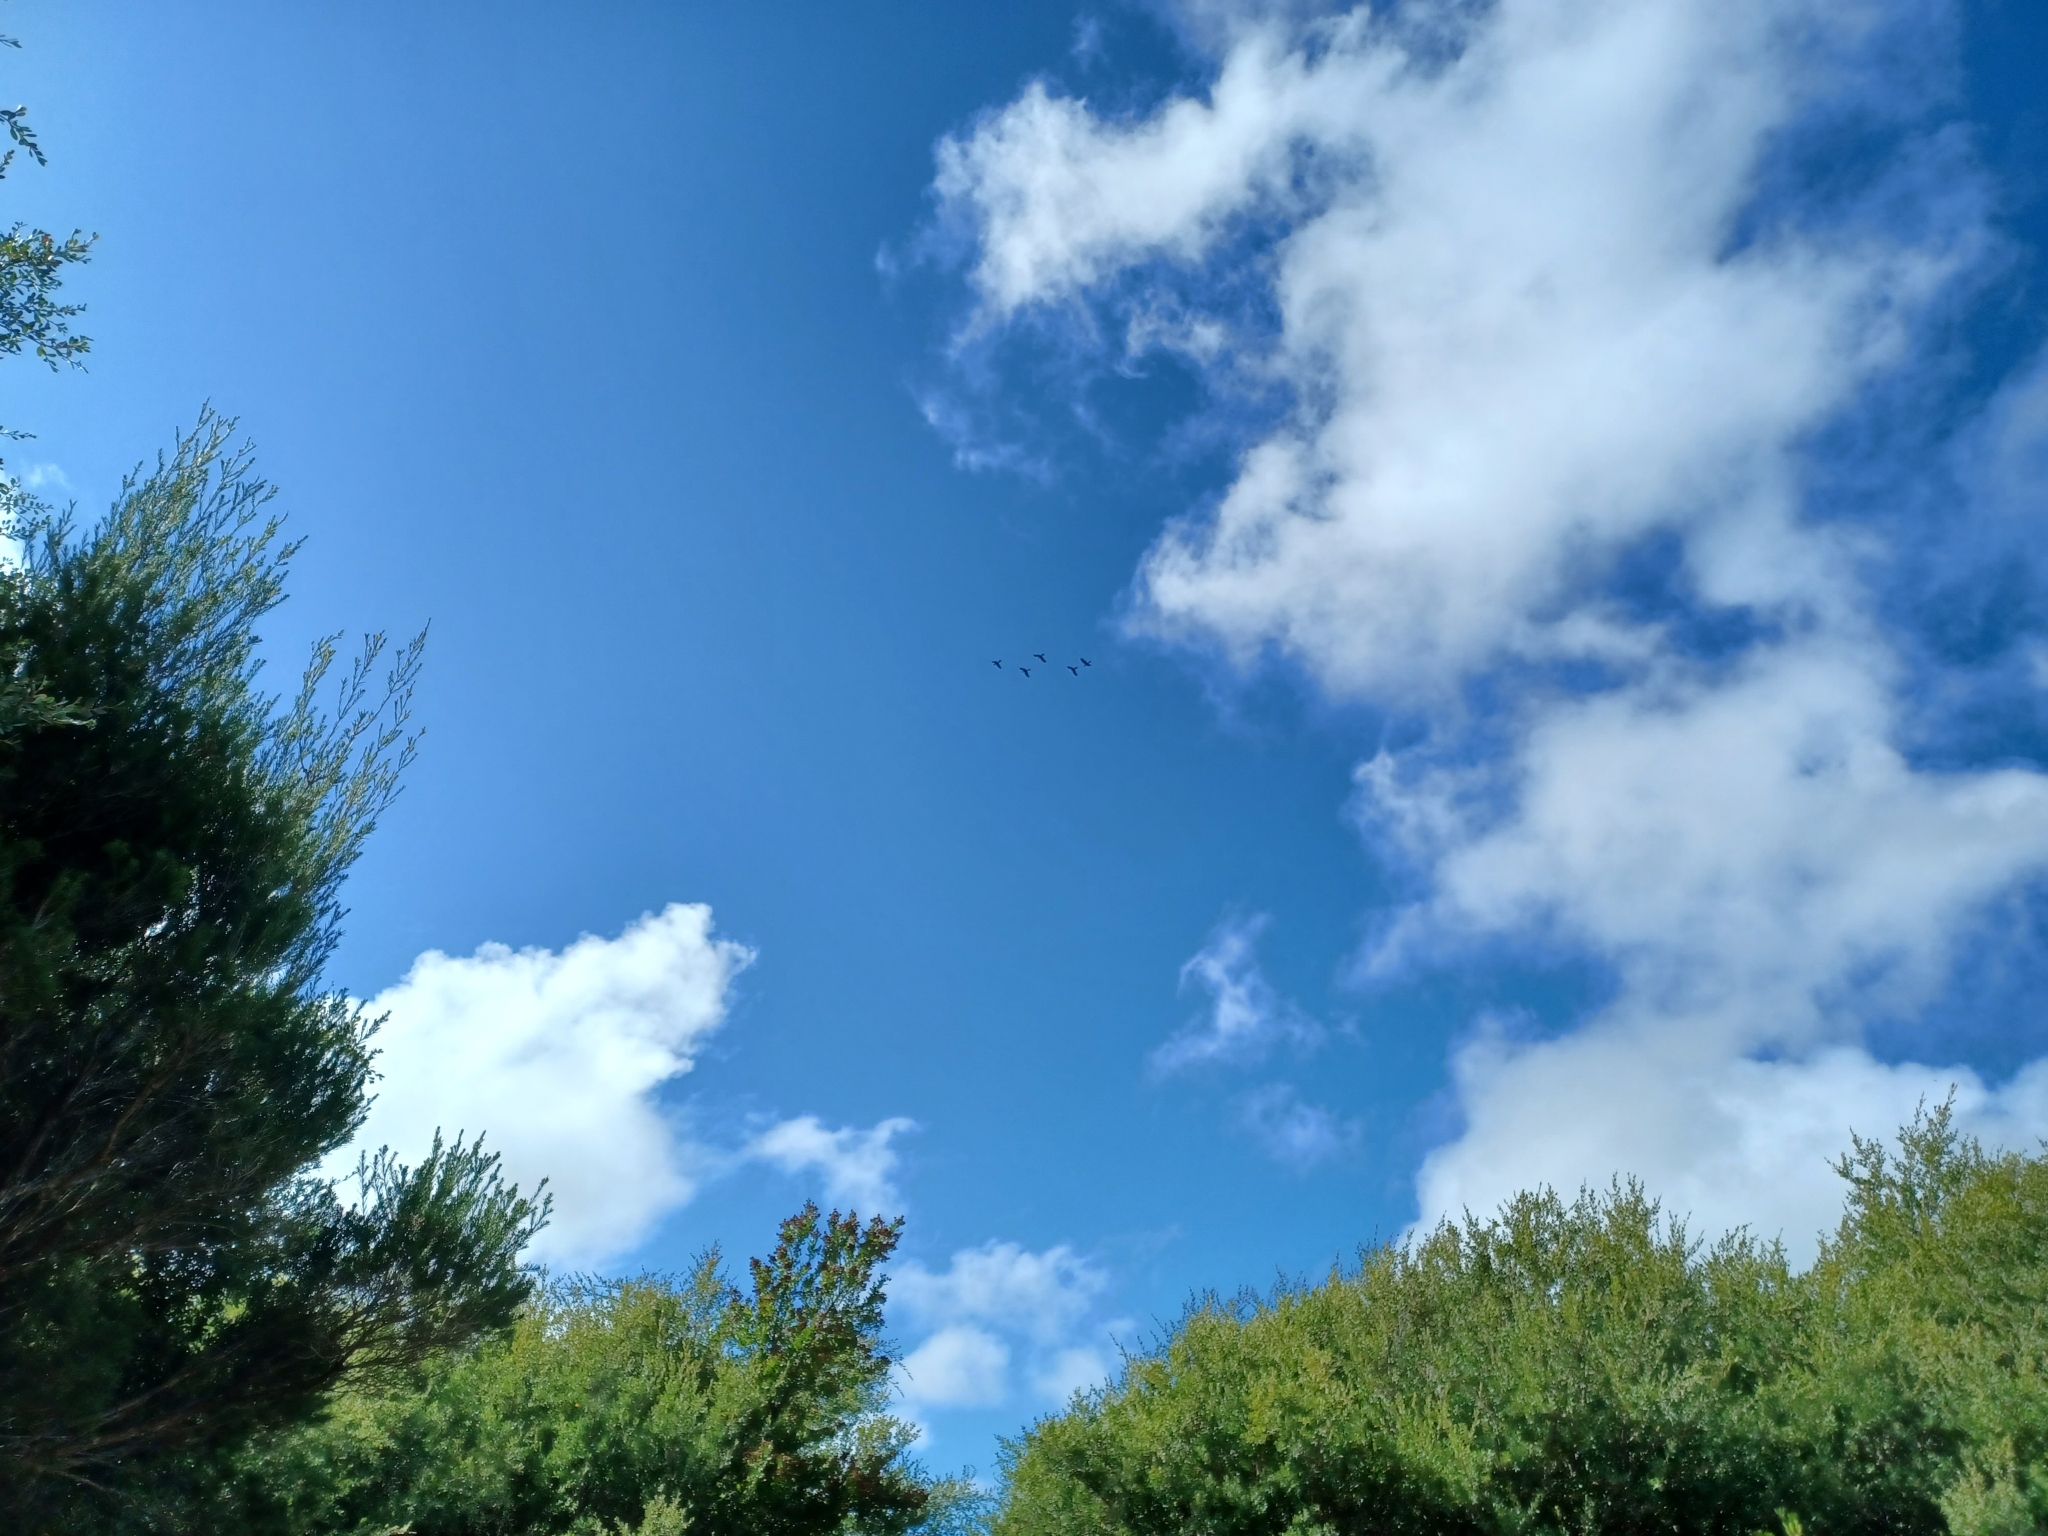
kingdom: Animalia
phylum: Chordata
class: Aves
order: Psittaciformes
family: Cacatuidae
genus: Zanda
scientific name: Zanda funerea
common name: Yellow-tailed black-cockatoo
